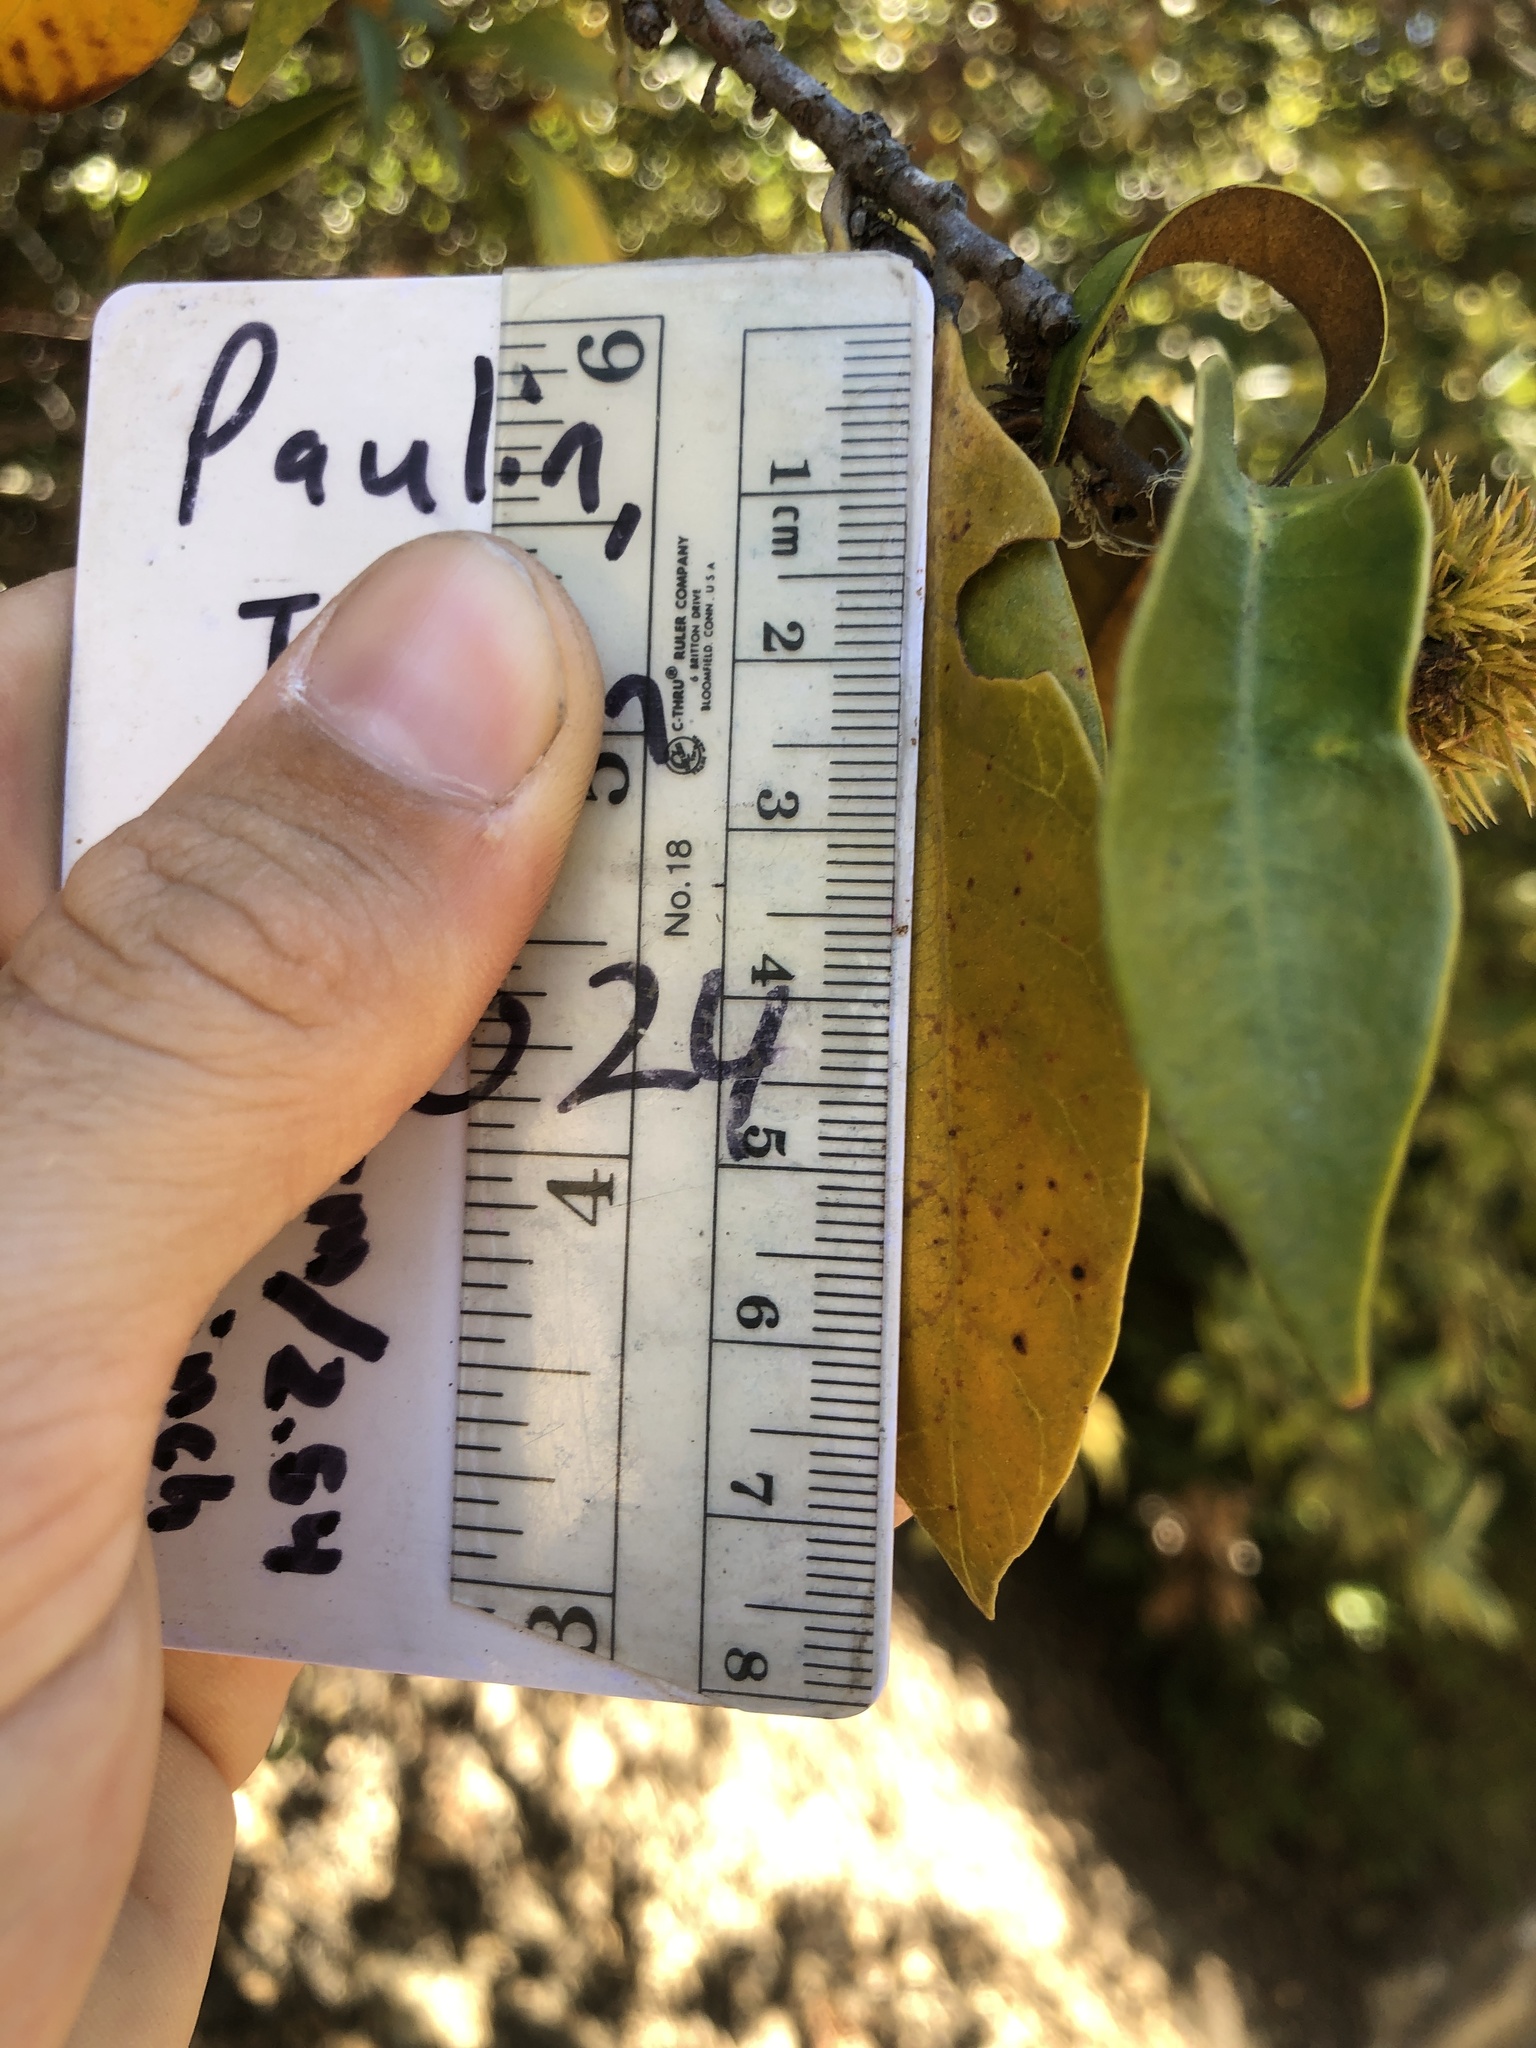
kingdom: Plantae
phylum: Tracheophyta
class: Magnoliopsida
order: Fagales
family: Fagaceae
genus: Chrysolepis
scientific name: Chrysolepis chrysophylla
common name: Giant chinquapin
